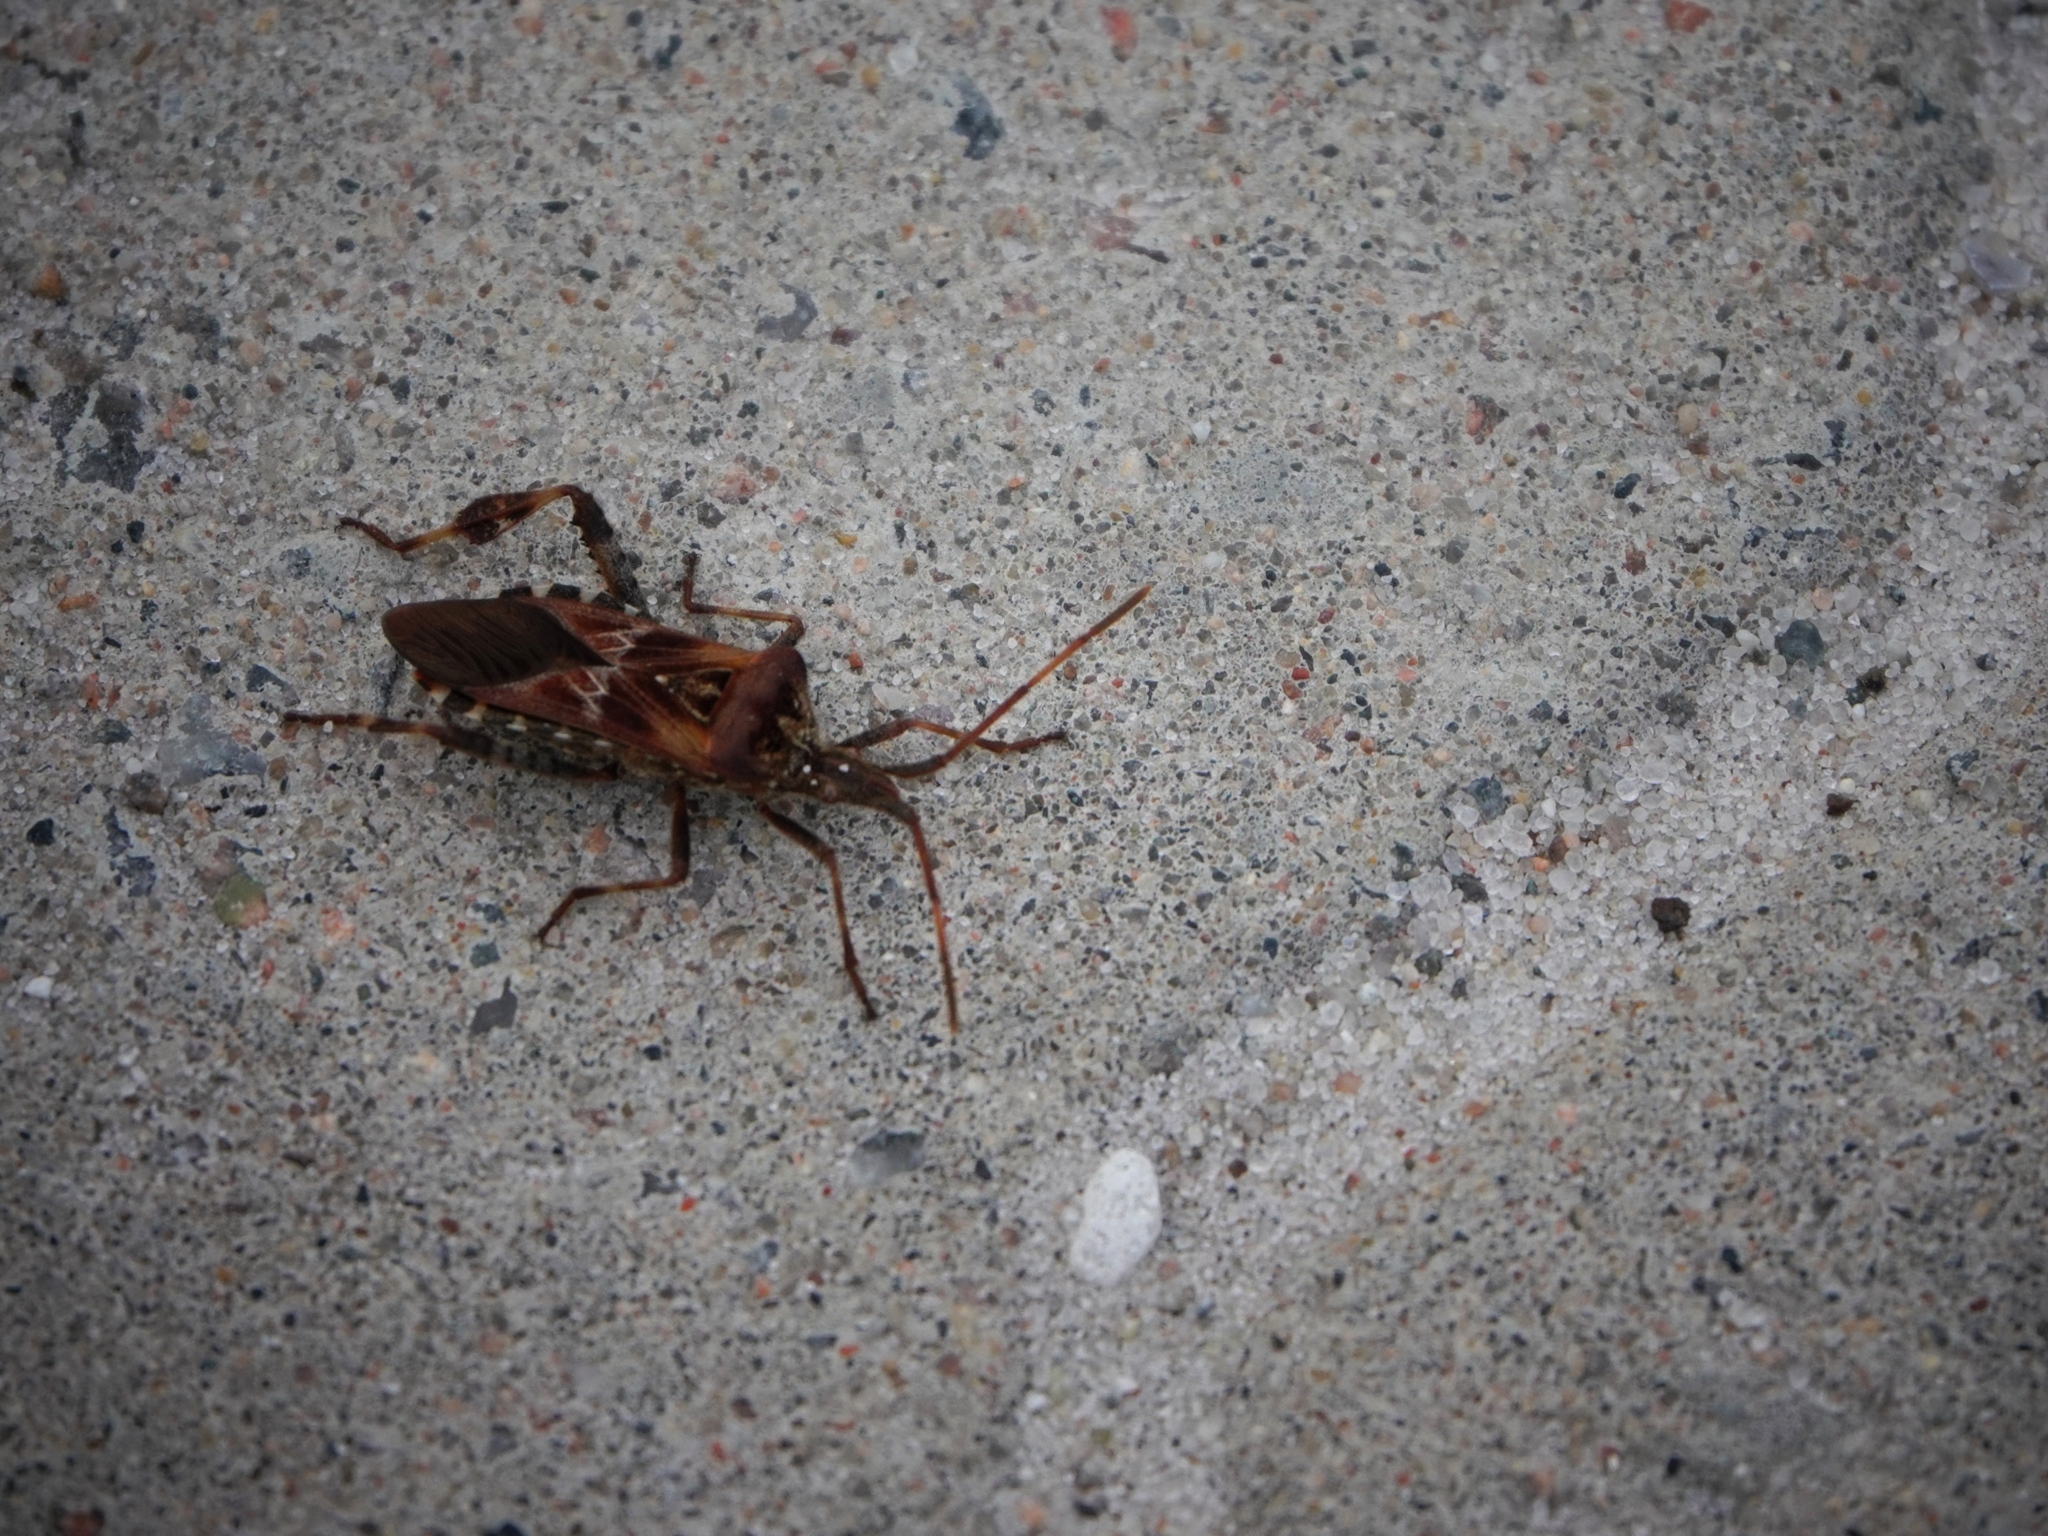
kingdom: Animalia
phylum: Arthropoda
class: Insecta
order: Hemiptera
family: Coreidae
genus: Leptoglossus
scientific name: Leptoglossus occidentalis
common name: Western conifer-seed bug
